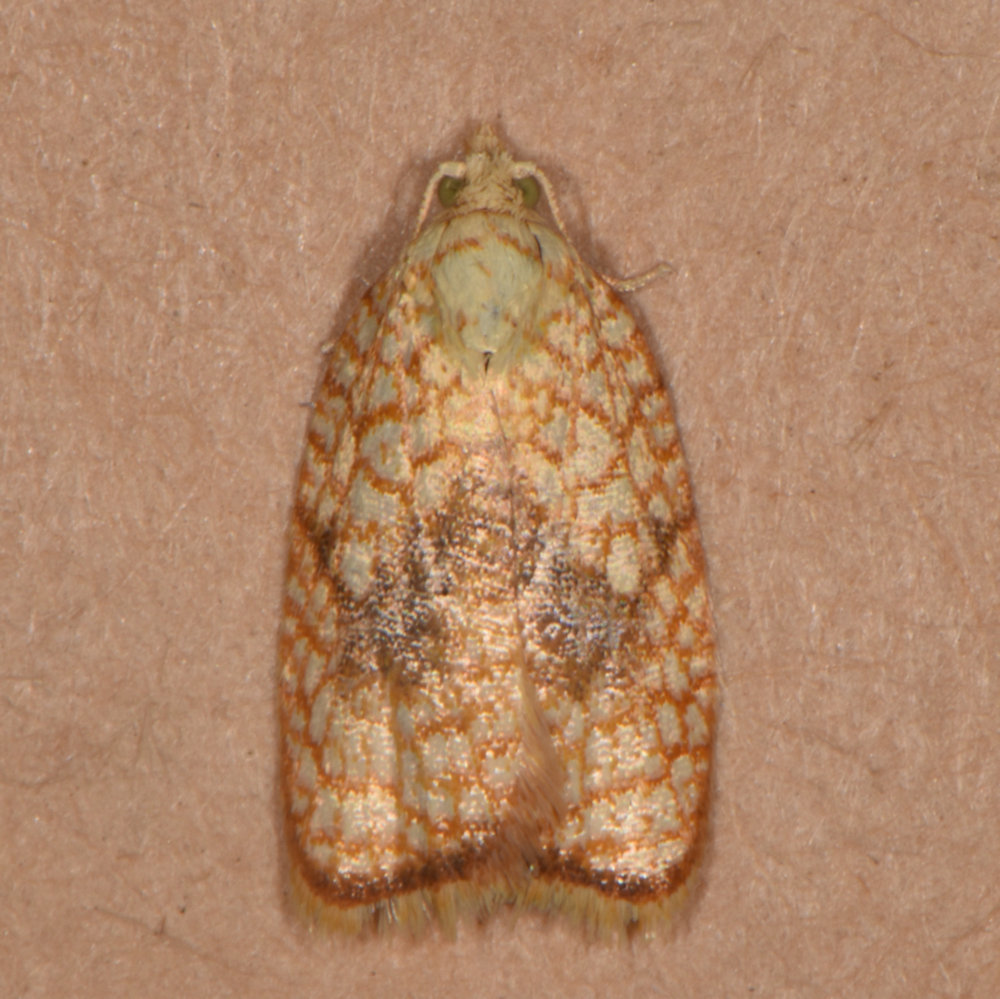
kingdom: Animalia
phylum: Arthropoda
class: Insecta
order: Lepidoptera
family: Tortricidae
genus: Acleris
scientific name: Acleris forsskaleana
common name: Maple button
